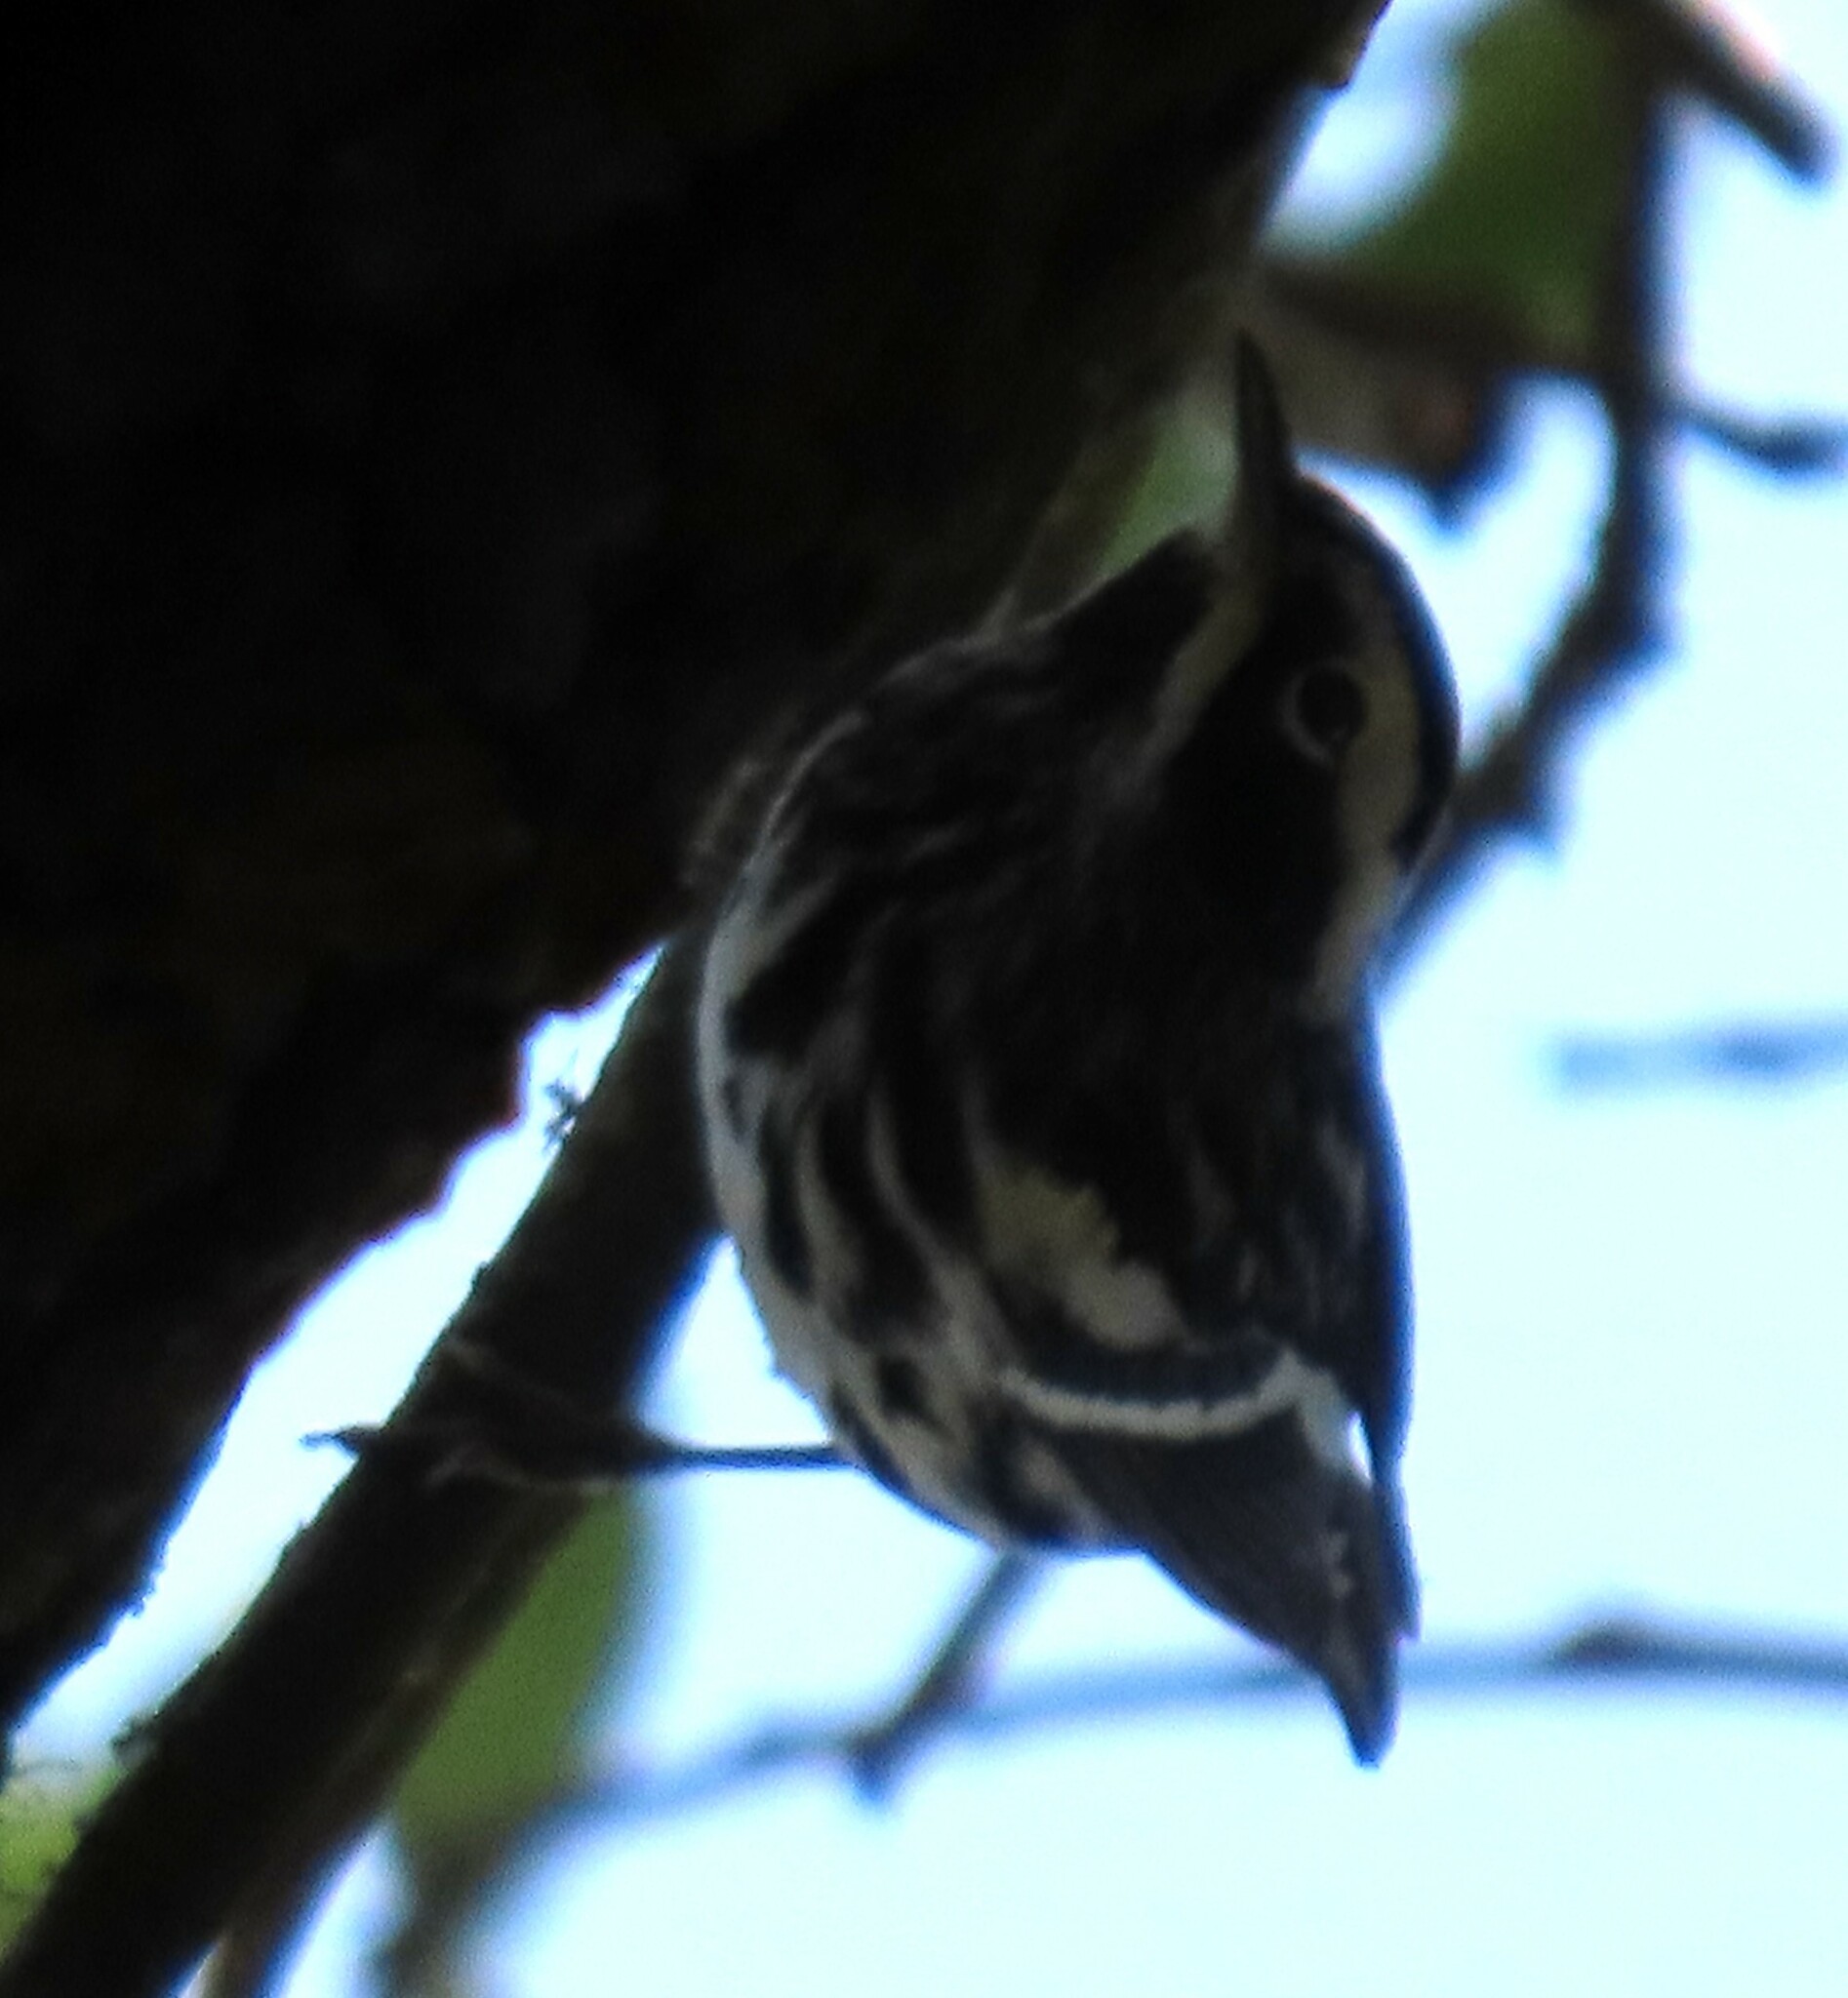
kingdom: Animalia
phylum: Chordata
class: Aves
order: Passeriformes
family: Parulidae
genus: Mniotilta
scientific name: Mniotilta varia
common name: Black-and-white warbler
